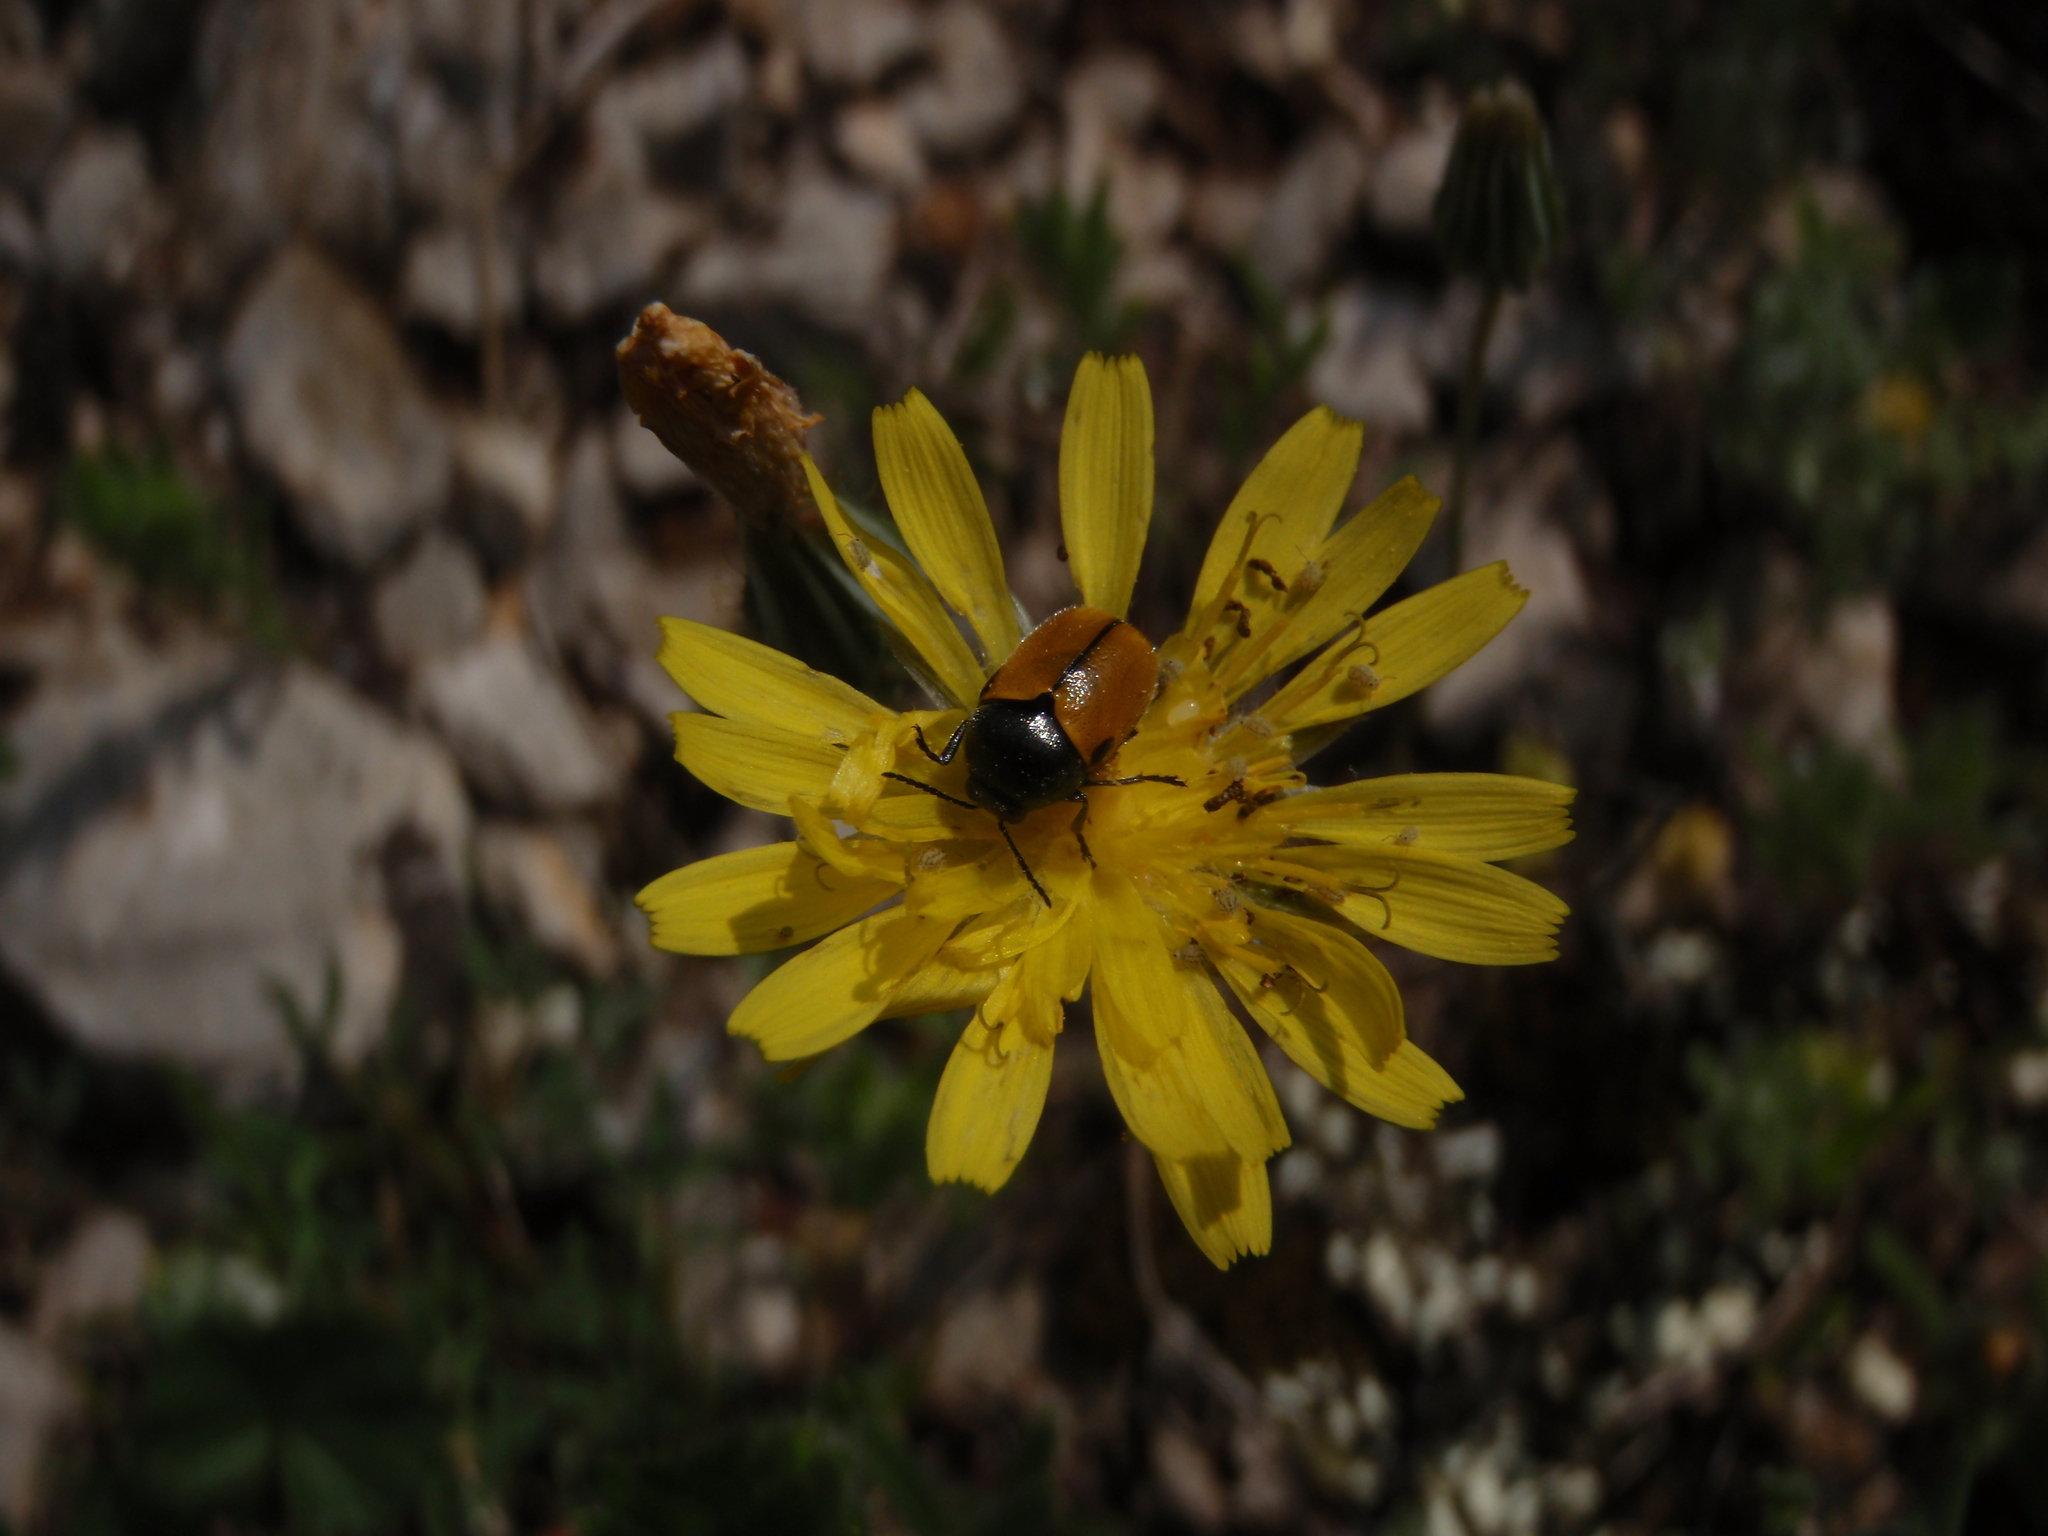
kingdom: Animalia
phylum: Arthropoda
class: Insecta
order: Coleoptera
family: Chrysomelidae
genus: Cryptocephalus
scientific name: Cryptocephalus rugicollis
